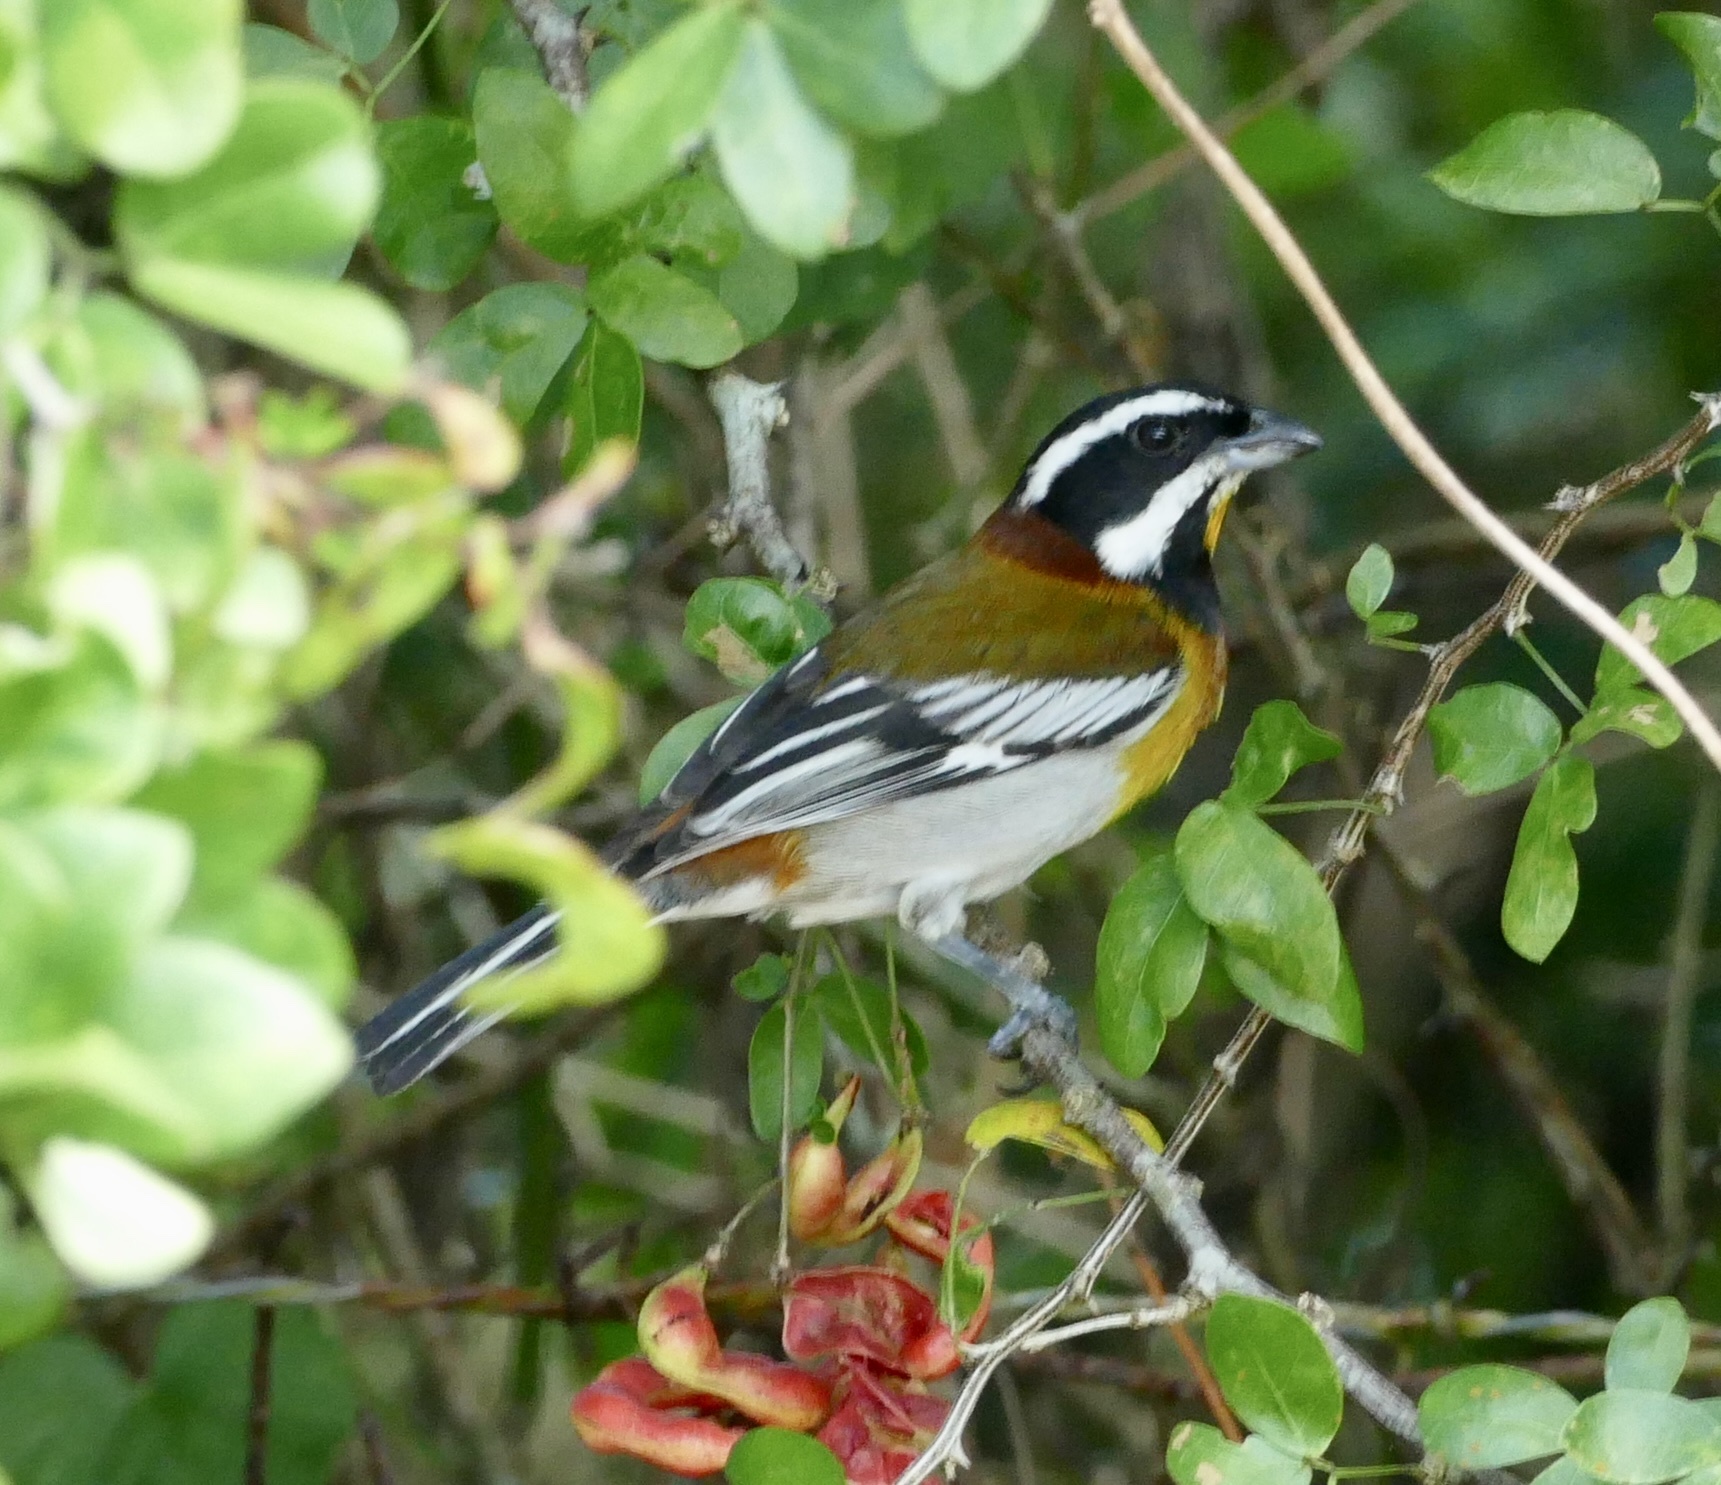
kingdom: Animalia
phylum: Chordata
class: Aves
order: Passeriformes
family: Spindalidae
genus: Spindalis
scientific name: Spindalis zena
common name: Western spindalis
